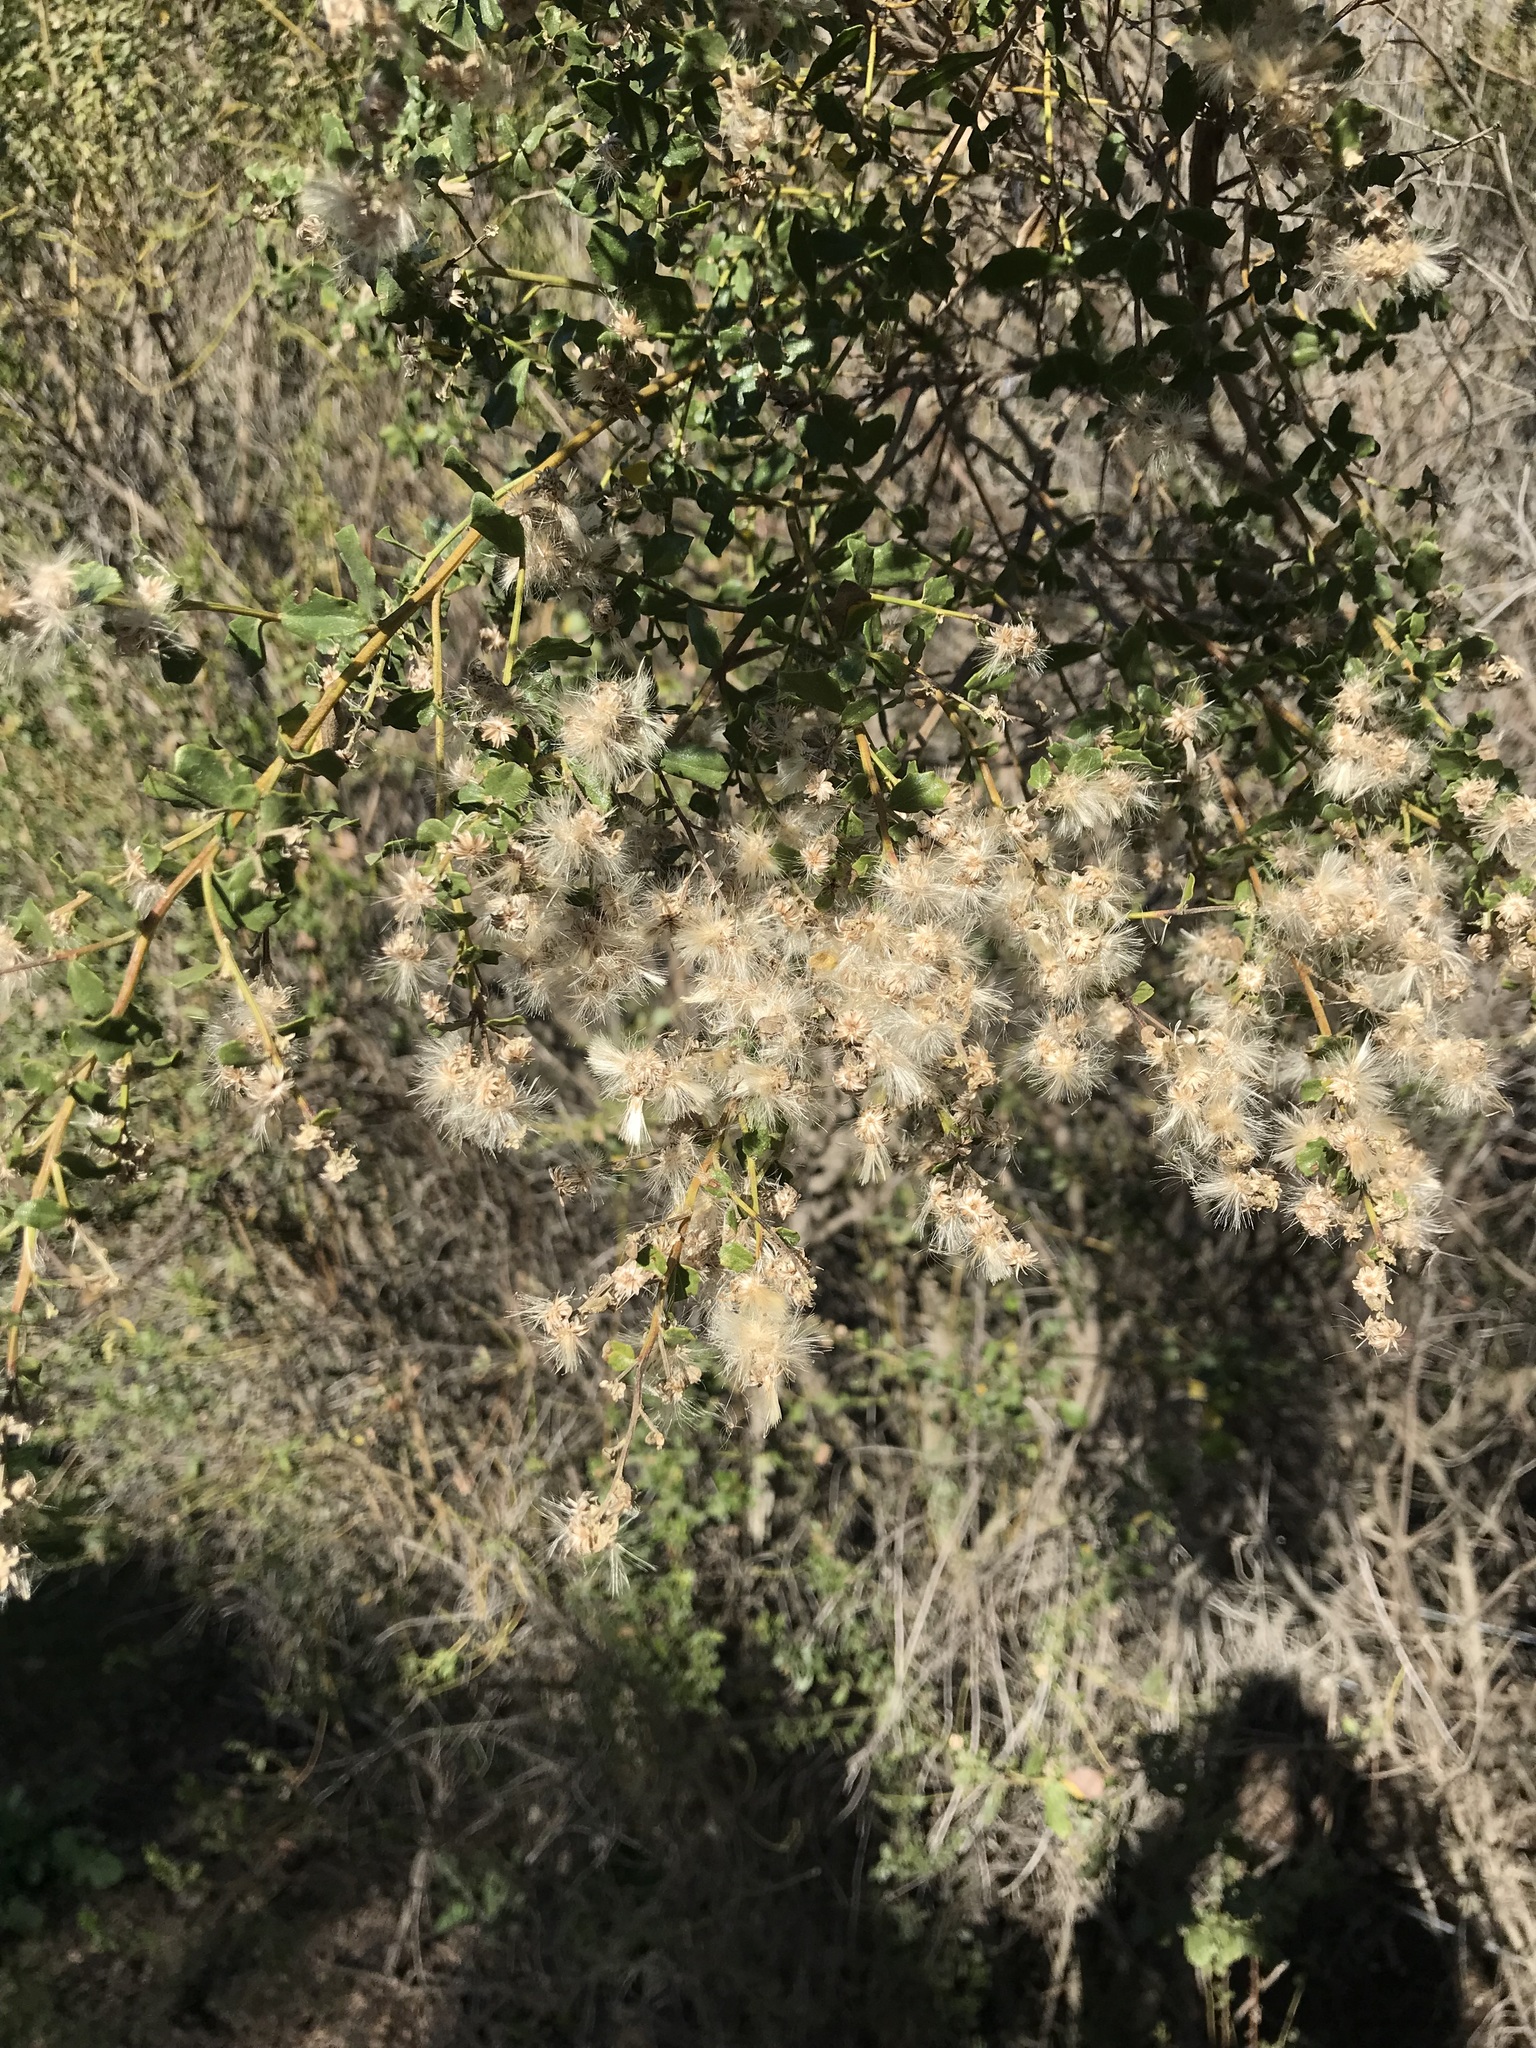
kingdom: Plantae
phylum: Tracheophyta
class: Magnoliopsida
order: Asterales
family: Asteraceae
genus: Baccharis
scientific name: Baccharis pilularis
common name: Coyotebrush
